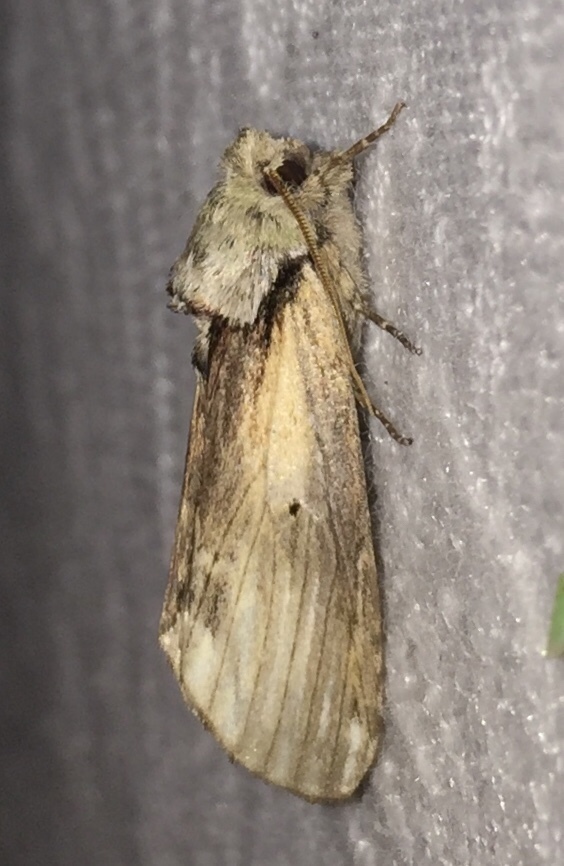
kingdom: Animalia
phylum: Arthropoda
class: Insecta
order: Lepidoptera
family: Notodontidae
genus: Schizura
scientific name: Schizura
